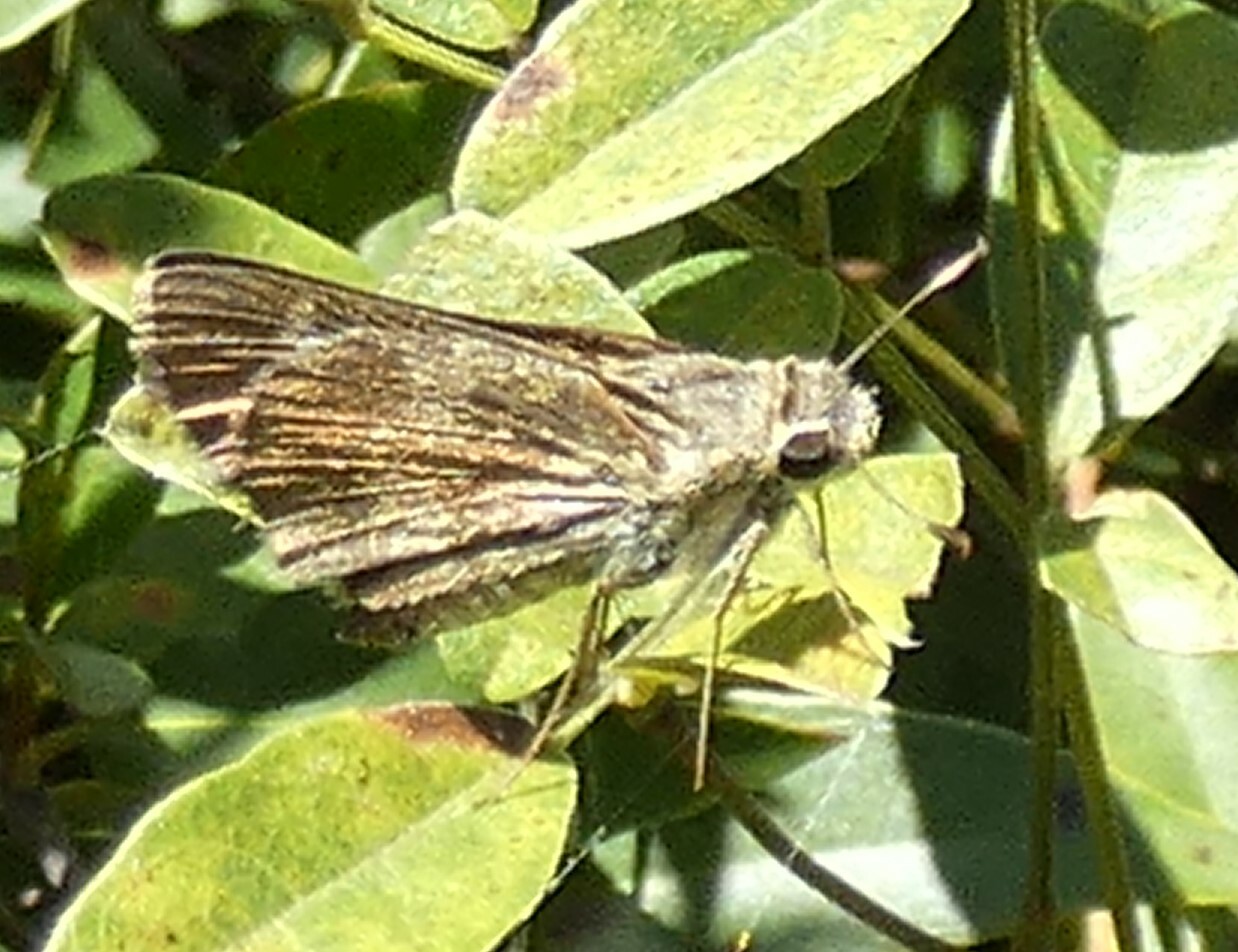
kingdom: Animalia
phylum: Arthropoda
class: Insecta
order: Lepidoptera
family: Hesperiidae
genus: Polites
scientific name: Polites vibex
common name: Whirlabout
